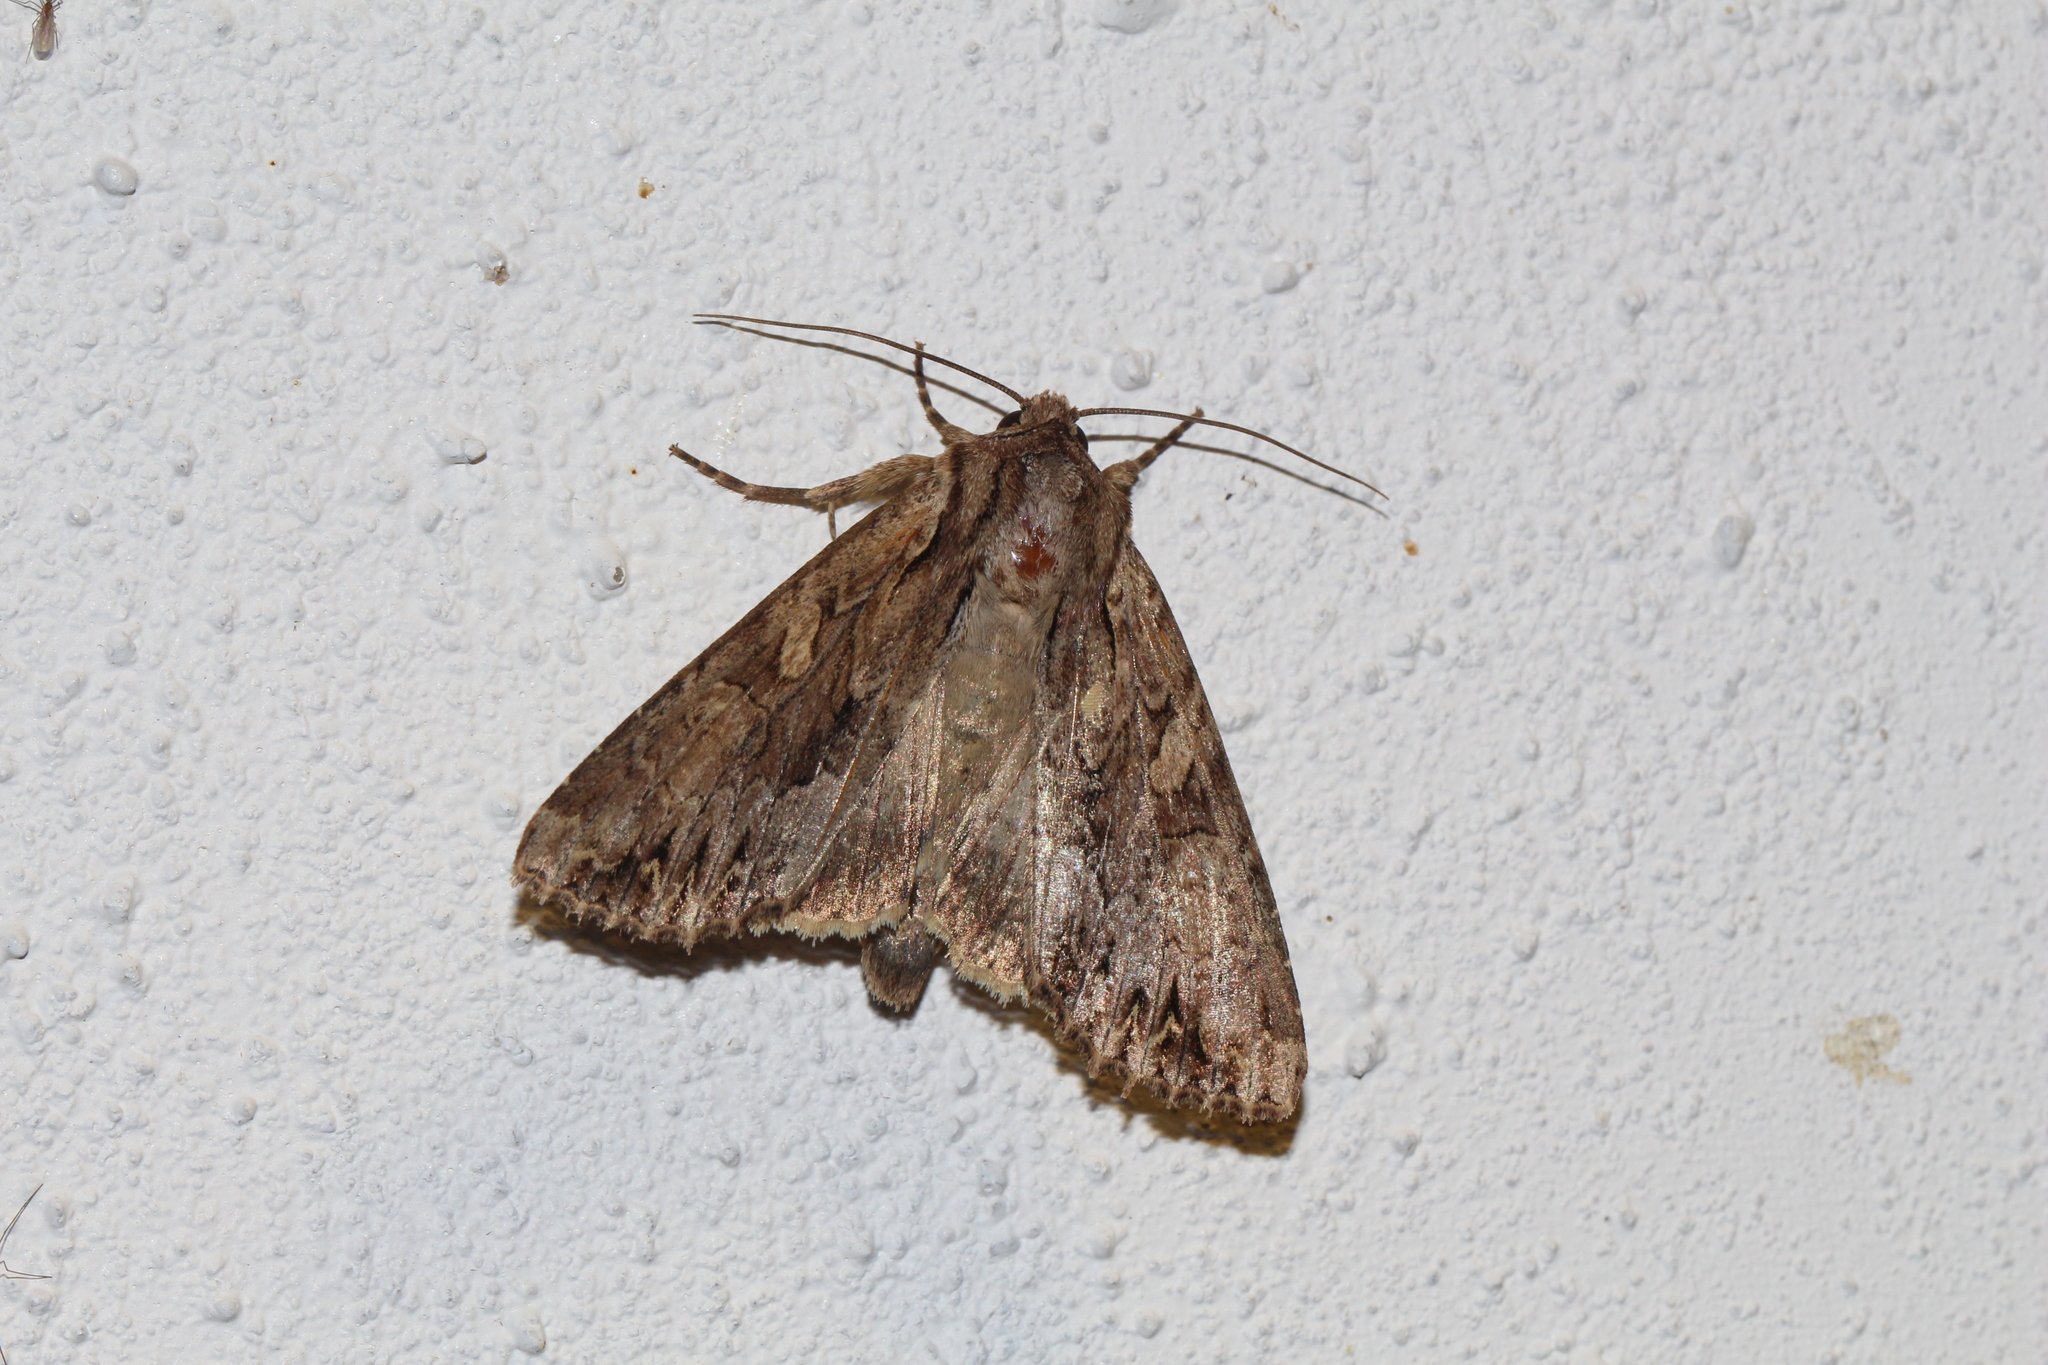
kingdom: Animalia
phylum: Arthropoda
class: Insecta
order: Lepidoptera
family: Noctuidae
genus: Apamea
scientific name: Apamea monoglypha
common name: Dark arches
